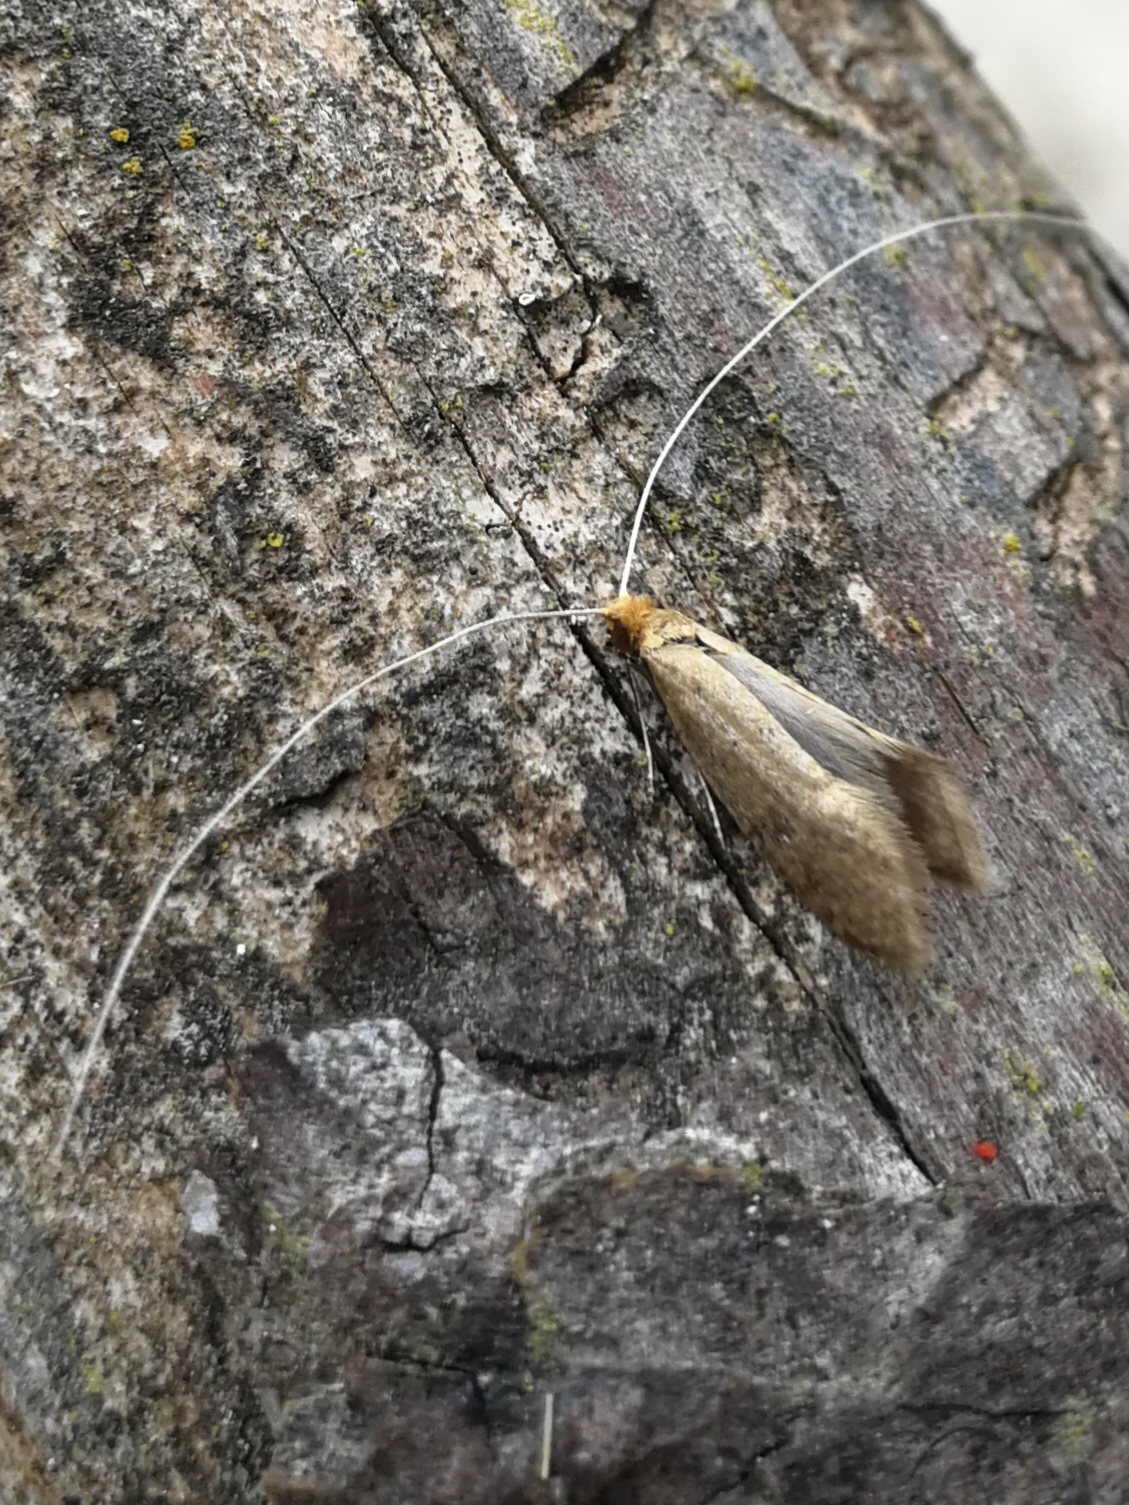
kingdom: Animalia
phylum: Arthropoda
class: Insecta
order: Lepidoptera
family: Adelidae
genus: Nematopogon
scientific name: Nematopogon swammerdamella
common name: Large long-horn
